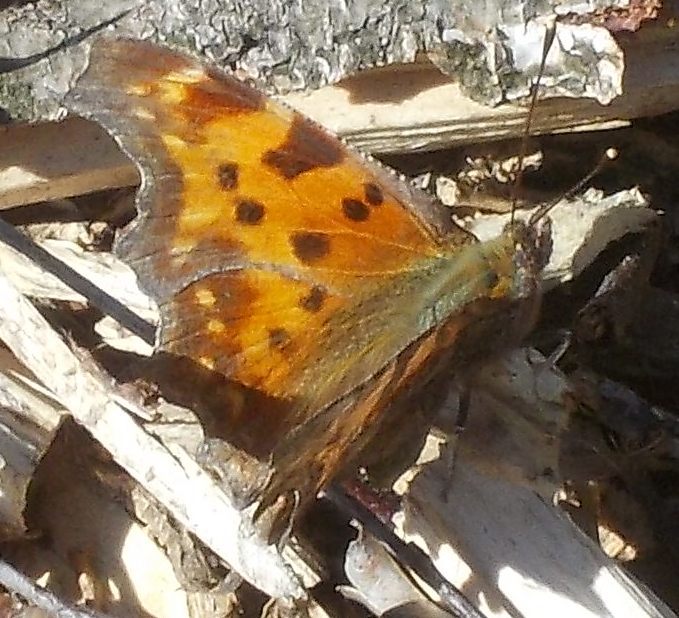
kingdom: Animalia
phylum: Arthropoda
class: Insecta
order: Lepidoptera
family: Nymphalidae
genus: Polygonia
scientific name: Polygonia c-album
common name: Comma
